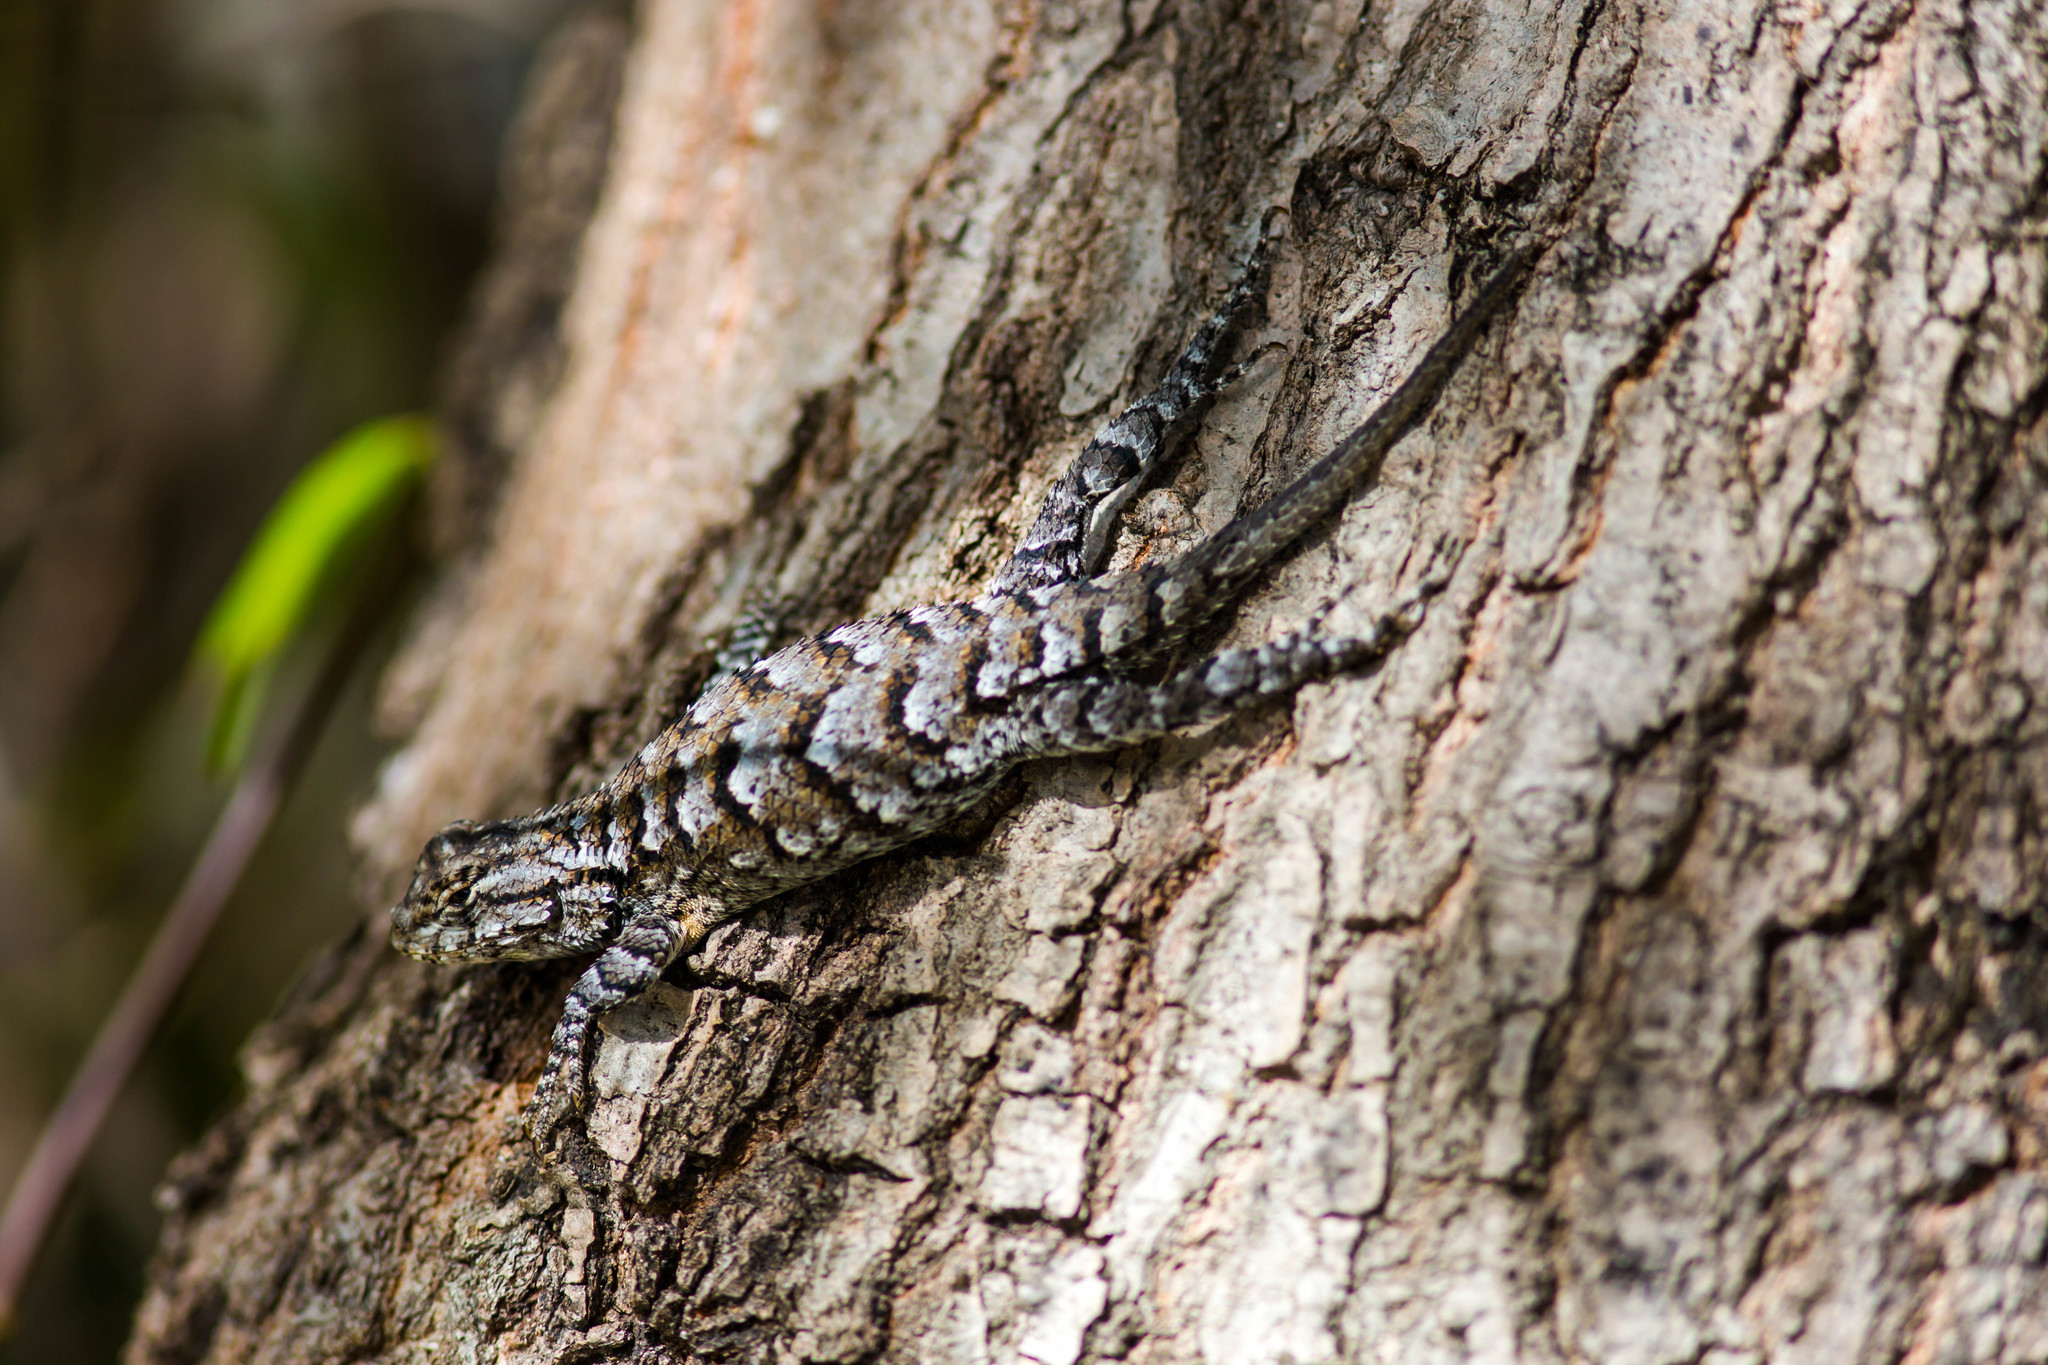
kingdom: Animalia
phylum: Chordata
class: Squamata
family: Phrynosomatidae
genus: Sceloporus
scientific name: Sceloporus undulatus
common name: Eastern fence lizard
